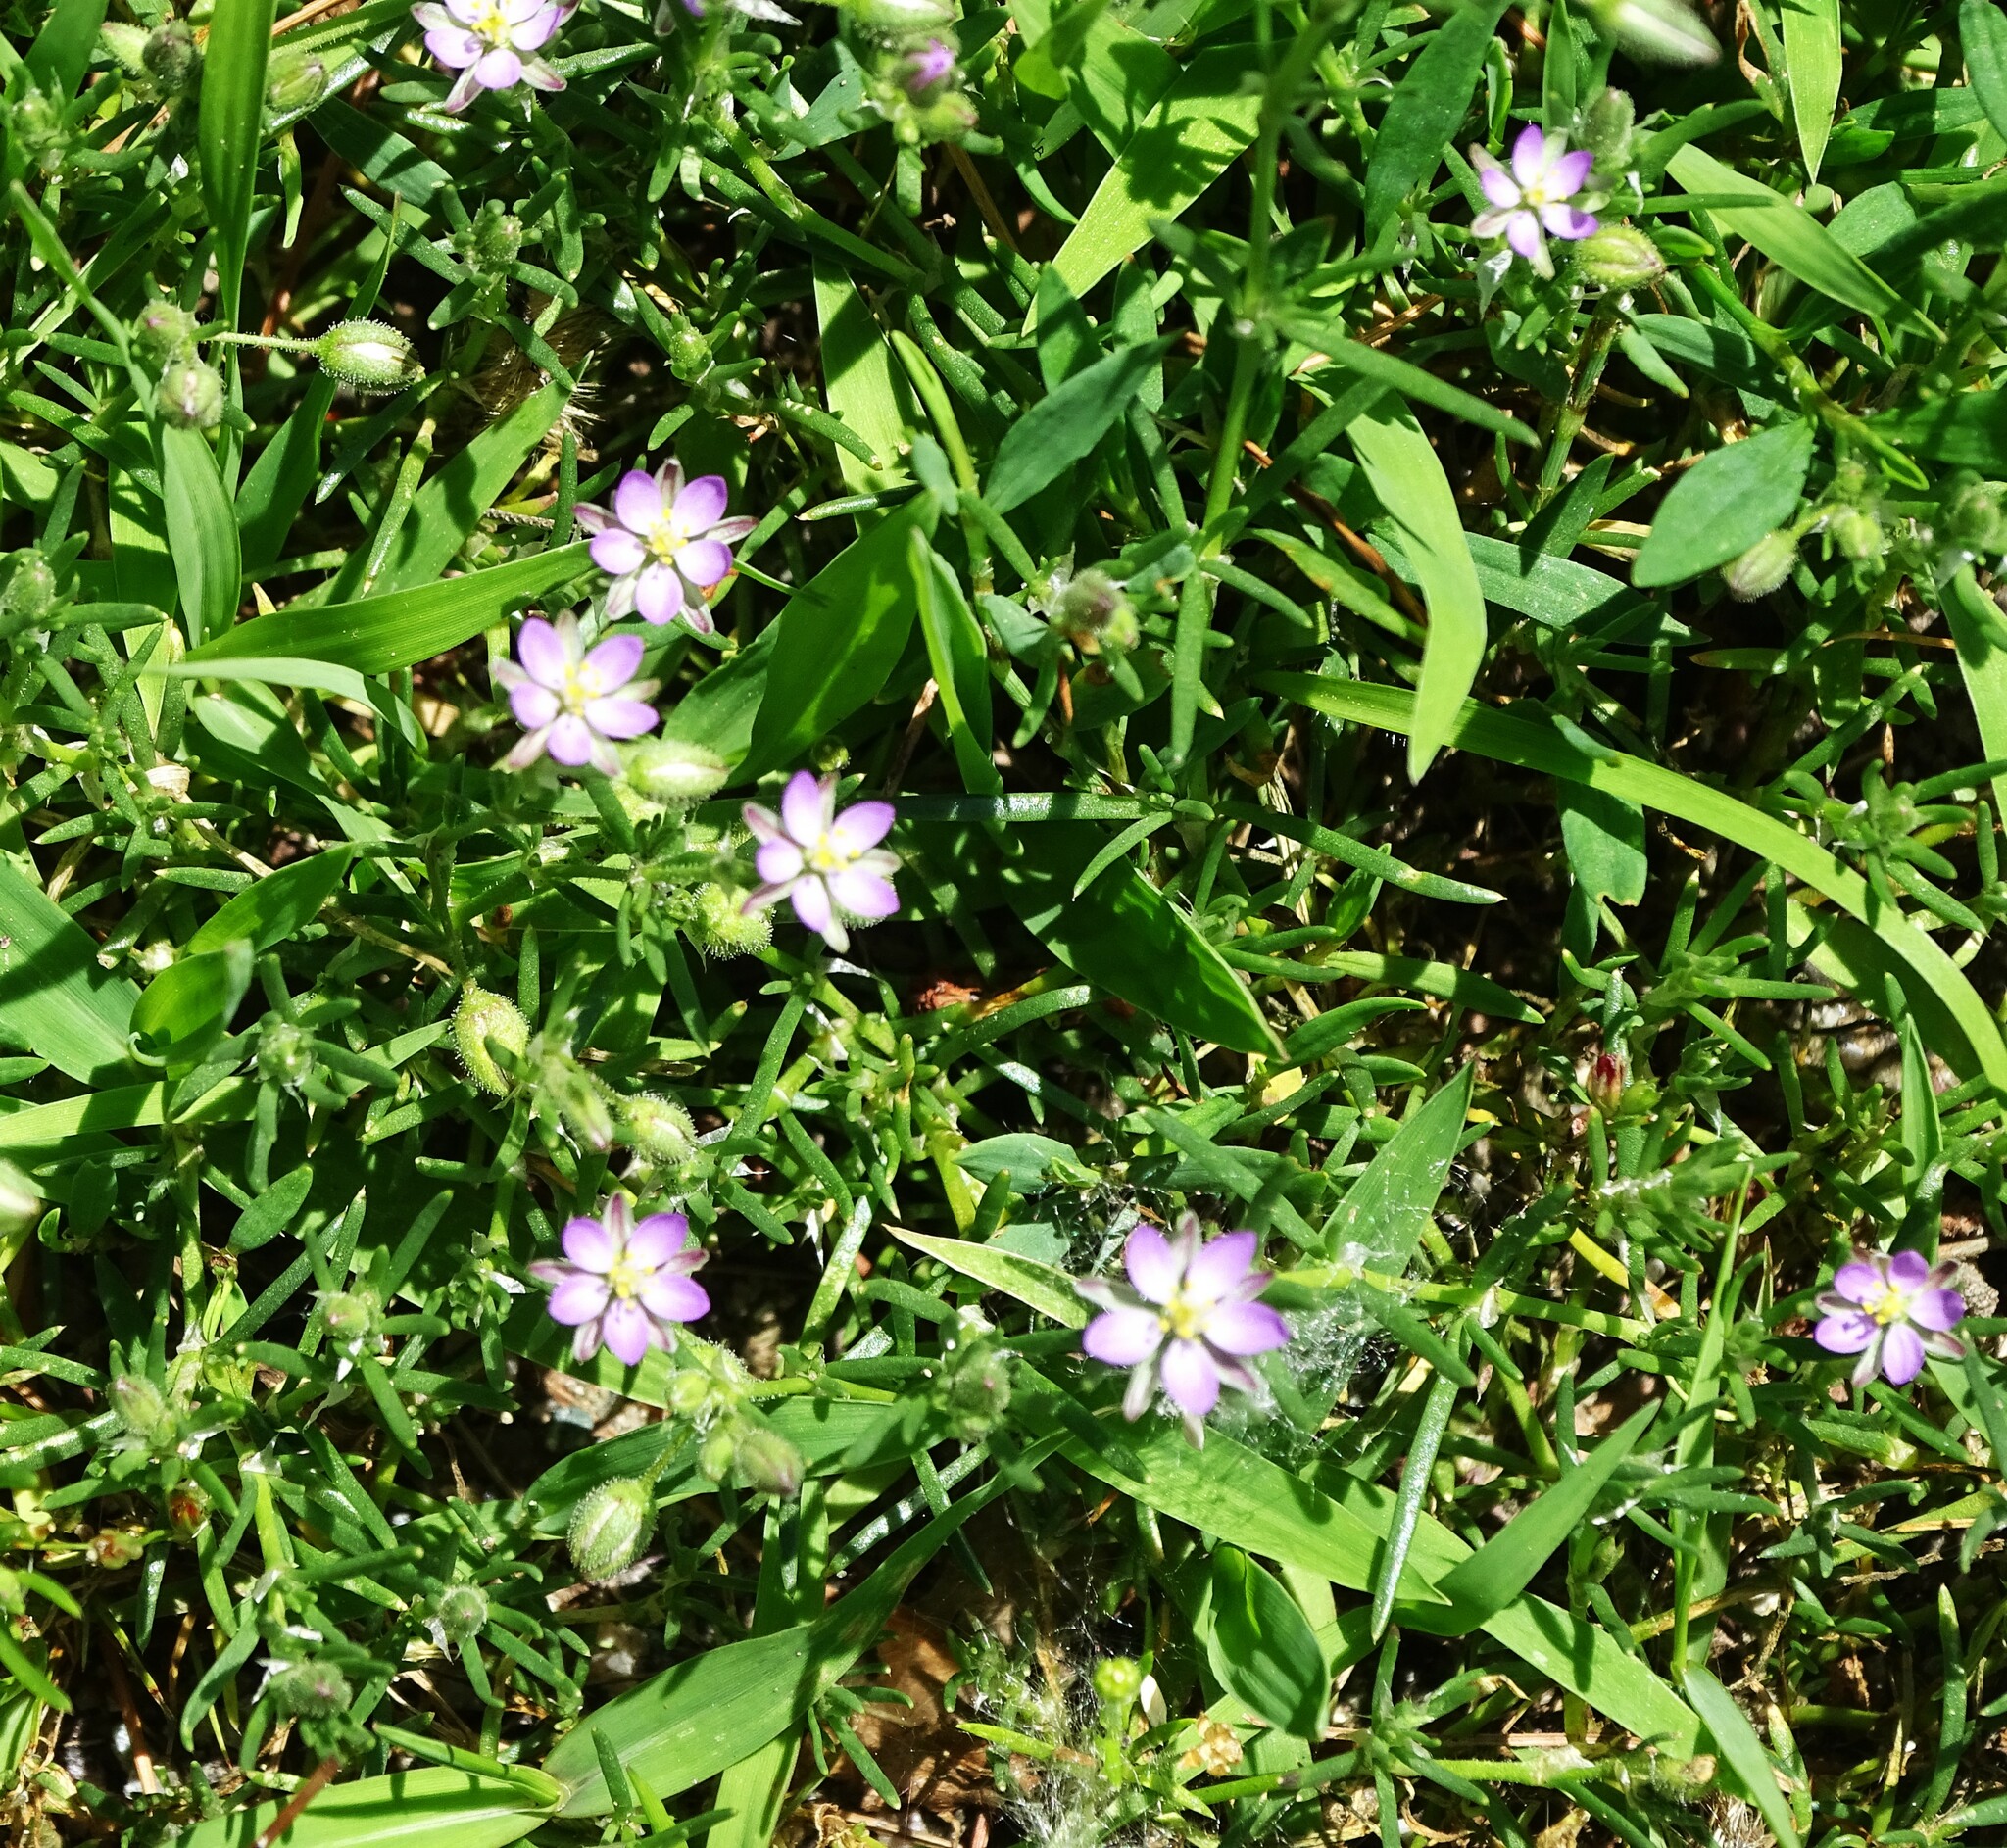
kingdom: Plantae
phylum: Tracheophyta
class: Magnoliopsida
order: Caryophyllales
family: Caryophyllaceae
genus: Spergularia
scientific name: Spergularia rubra
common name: Red sand-spurrey
